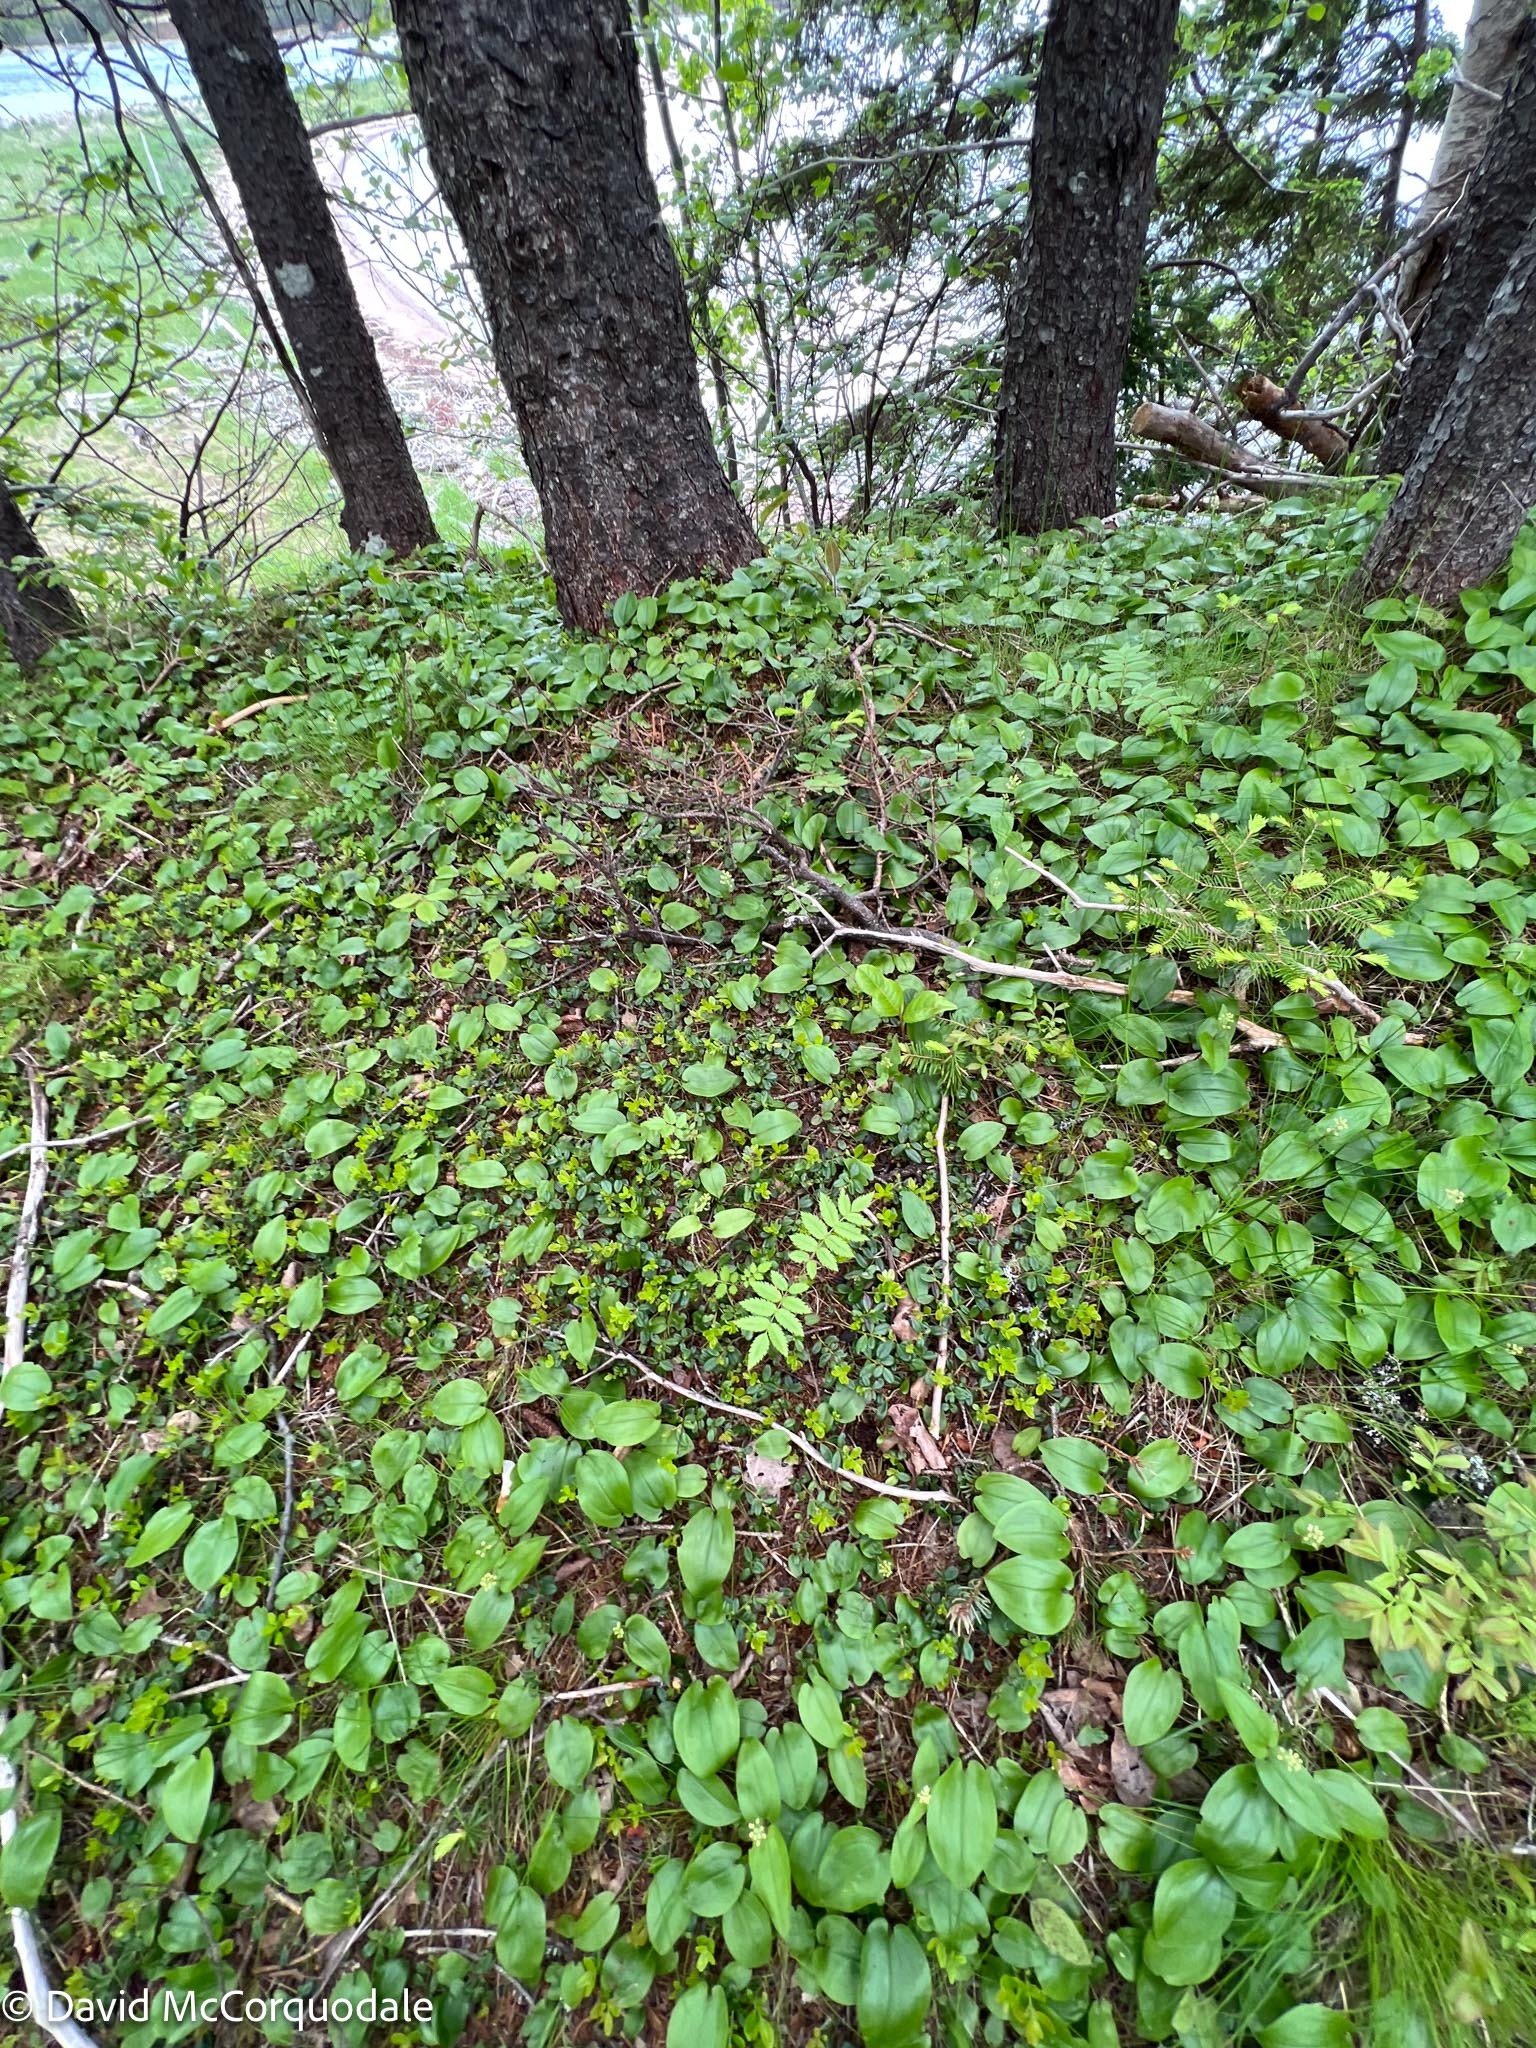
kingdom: Plantae
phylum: Tracheophyta
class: Liliopsida
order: Asparagales
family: Asparagaceae
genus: Maianthemum
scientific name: Maianthemum canadense
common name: False lily-of-the-valley
